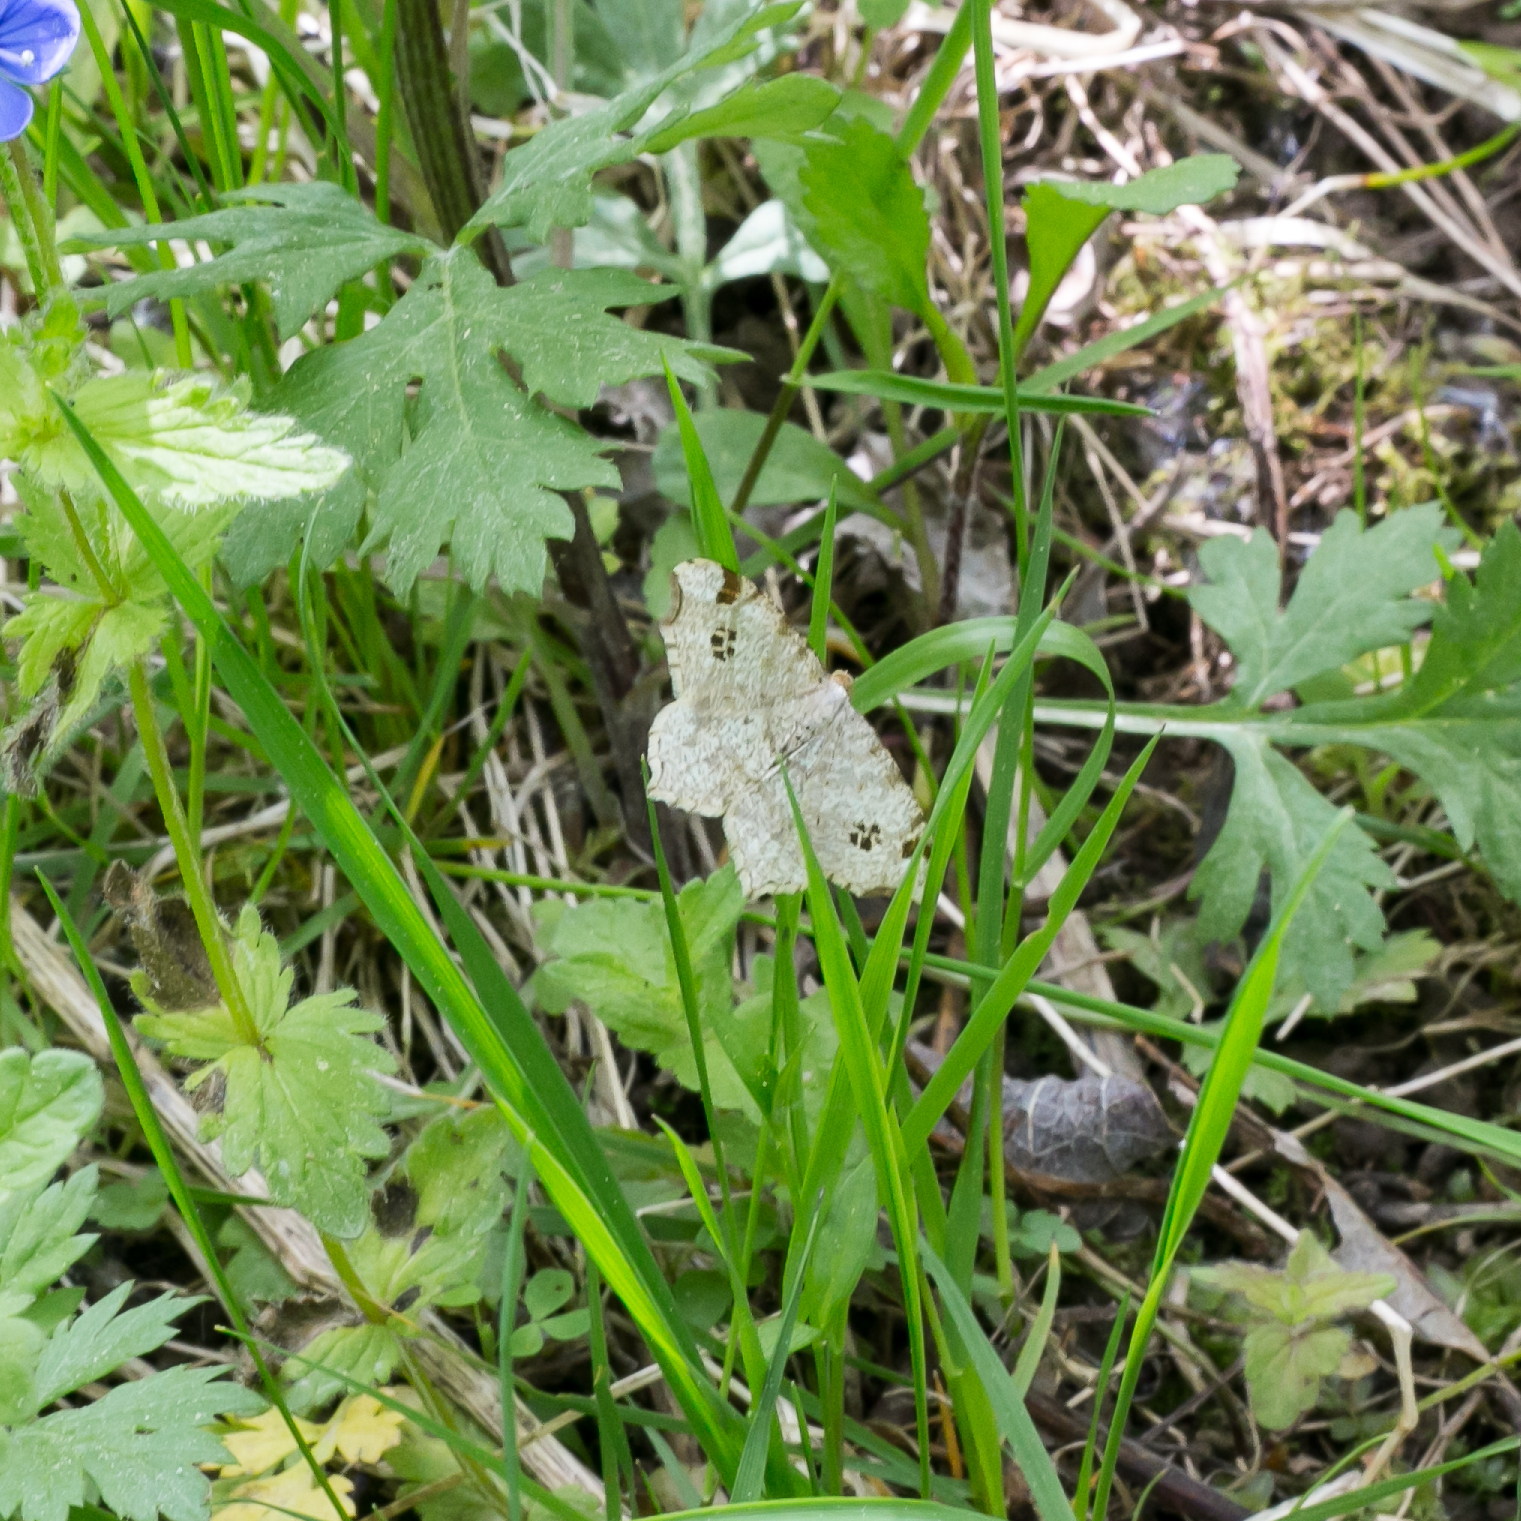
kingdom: Animalia
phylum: Arthropoda
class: Insecta
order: Lepidoptera
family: Geometridae
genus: Macaria
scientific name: Macaria notata
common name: Peacock moth
